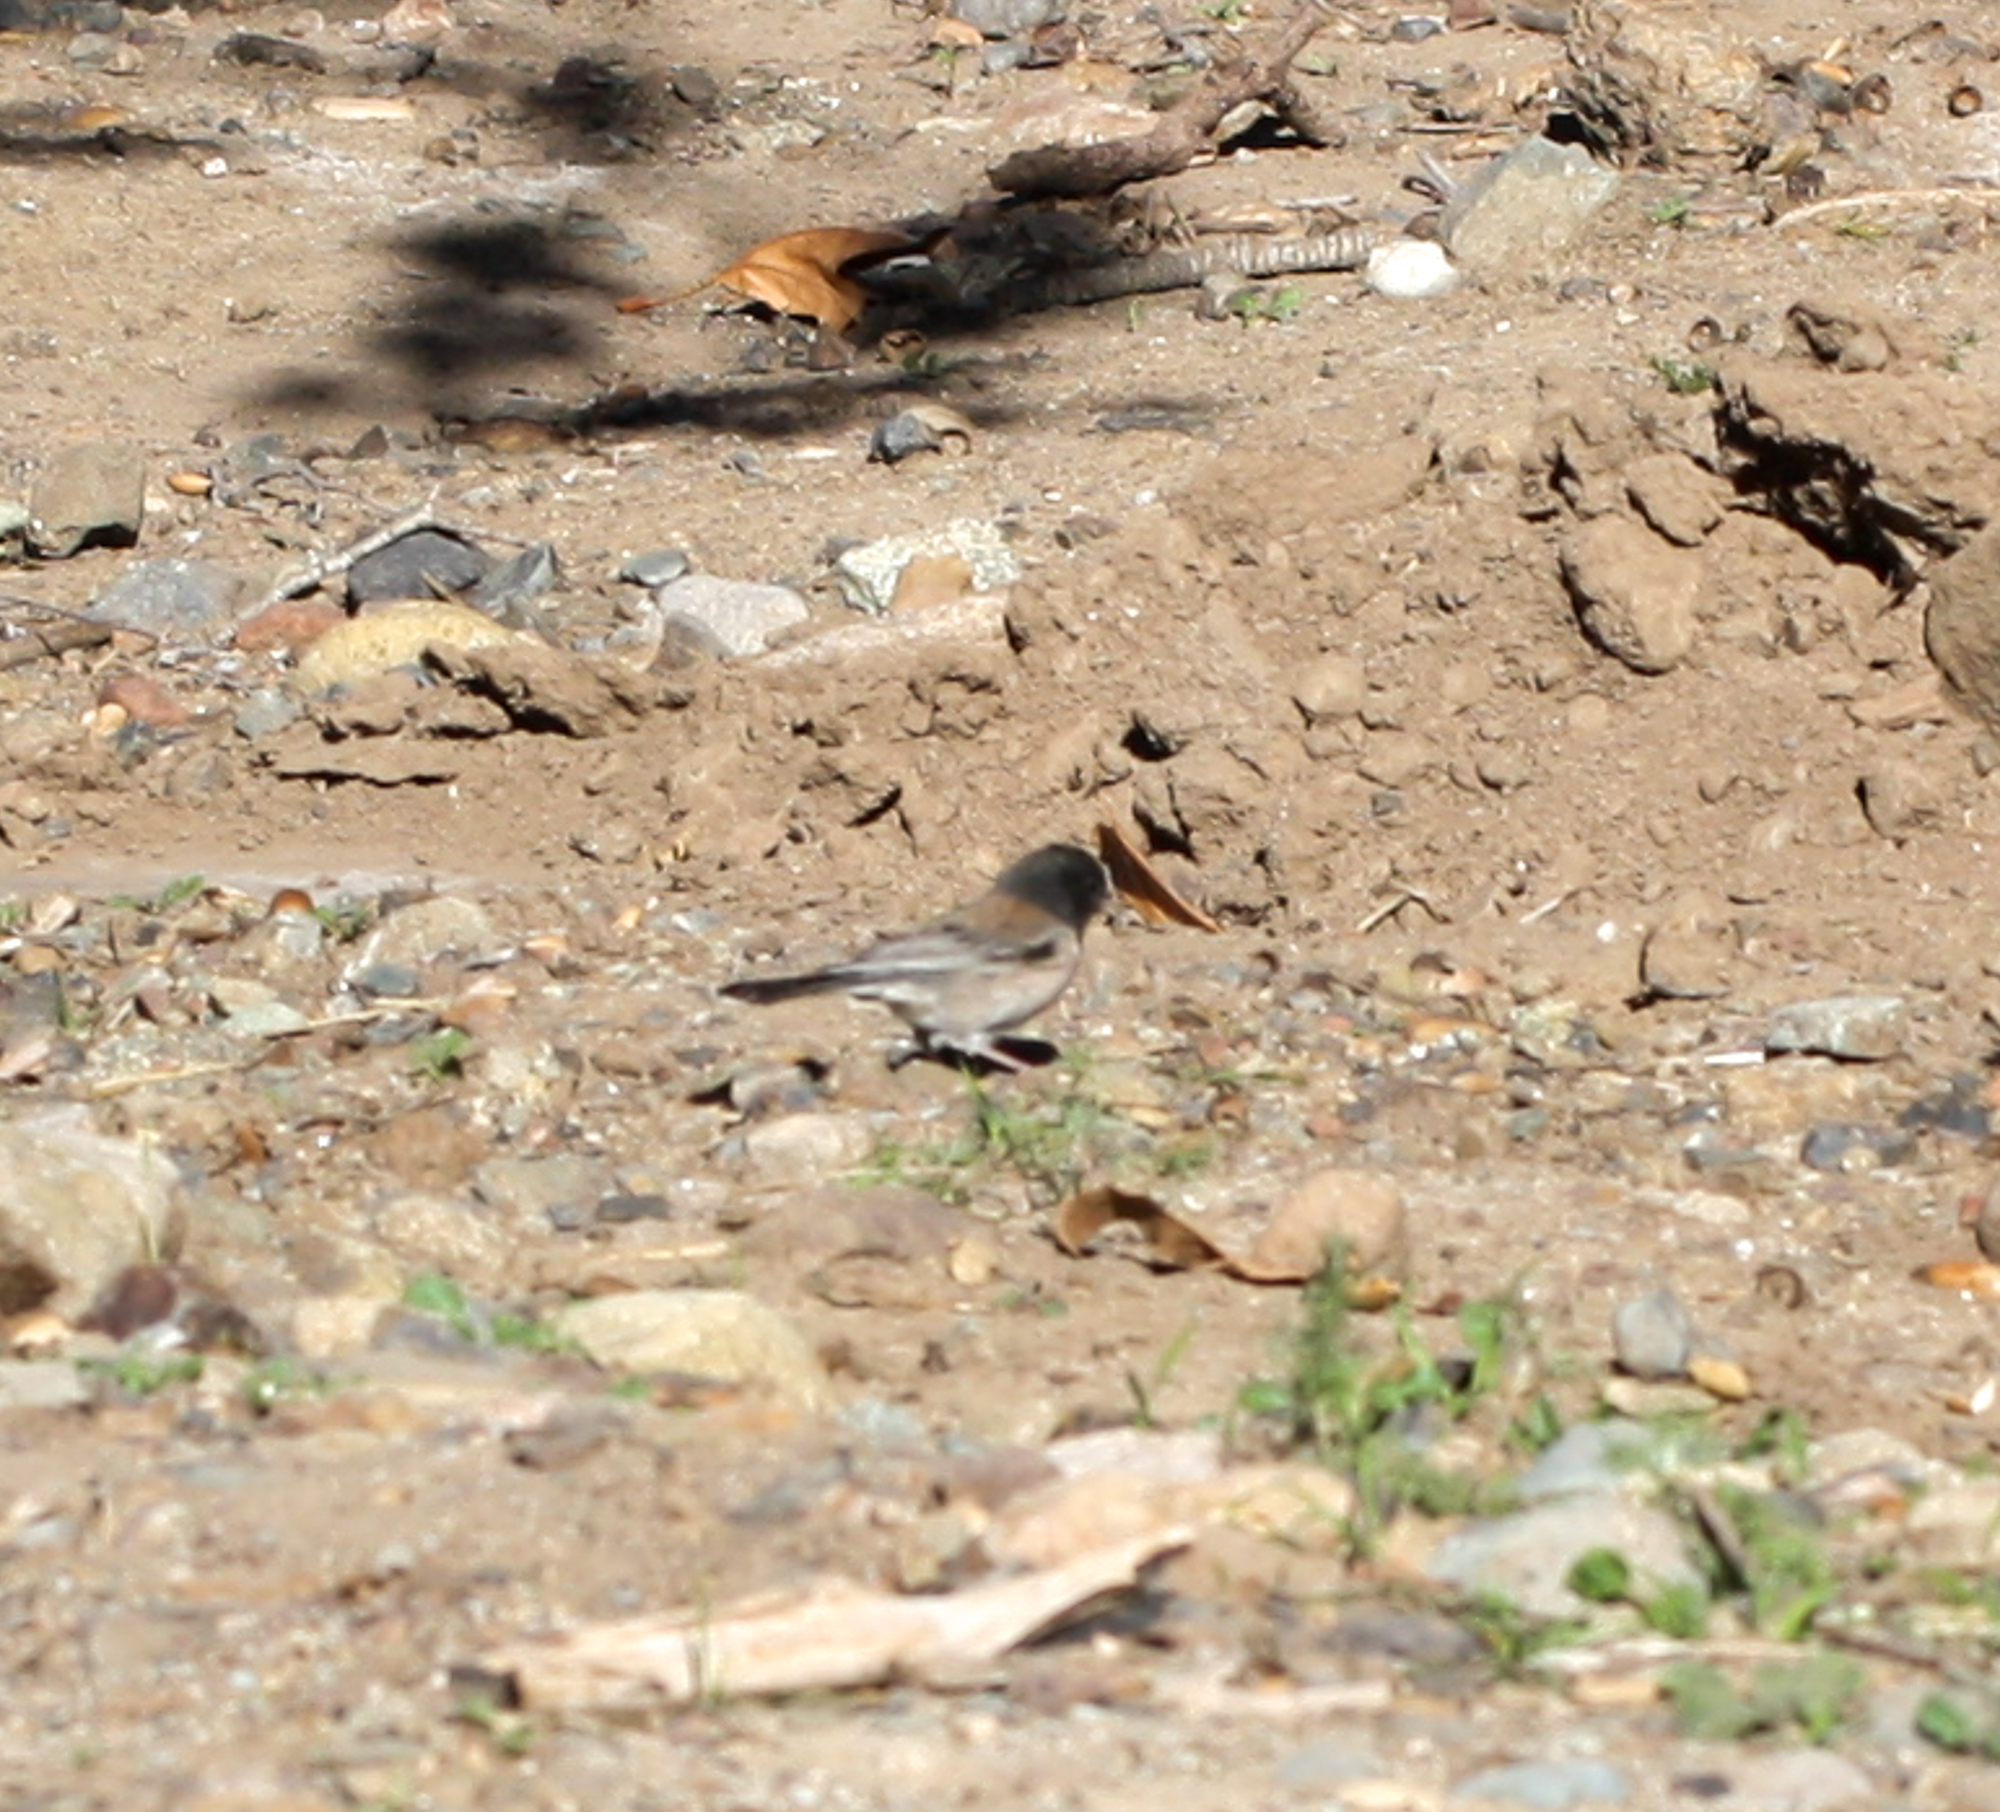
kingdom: Animalia
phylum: Chordata
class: Aves
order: Passeriformes
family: Passerellidae
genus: Junco
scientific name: Junco hyemalis
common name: Dark-eyed junco
